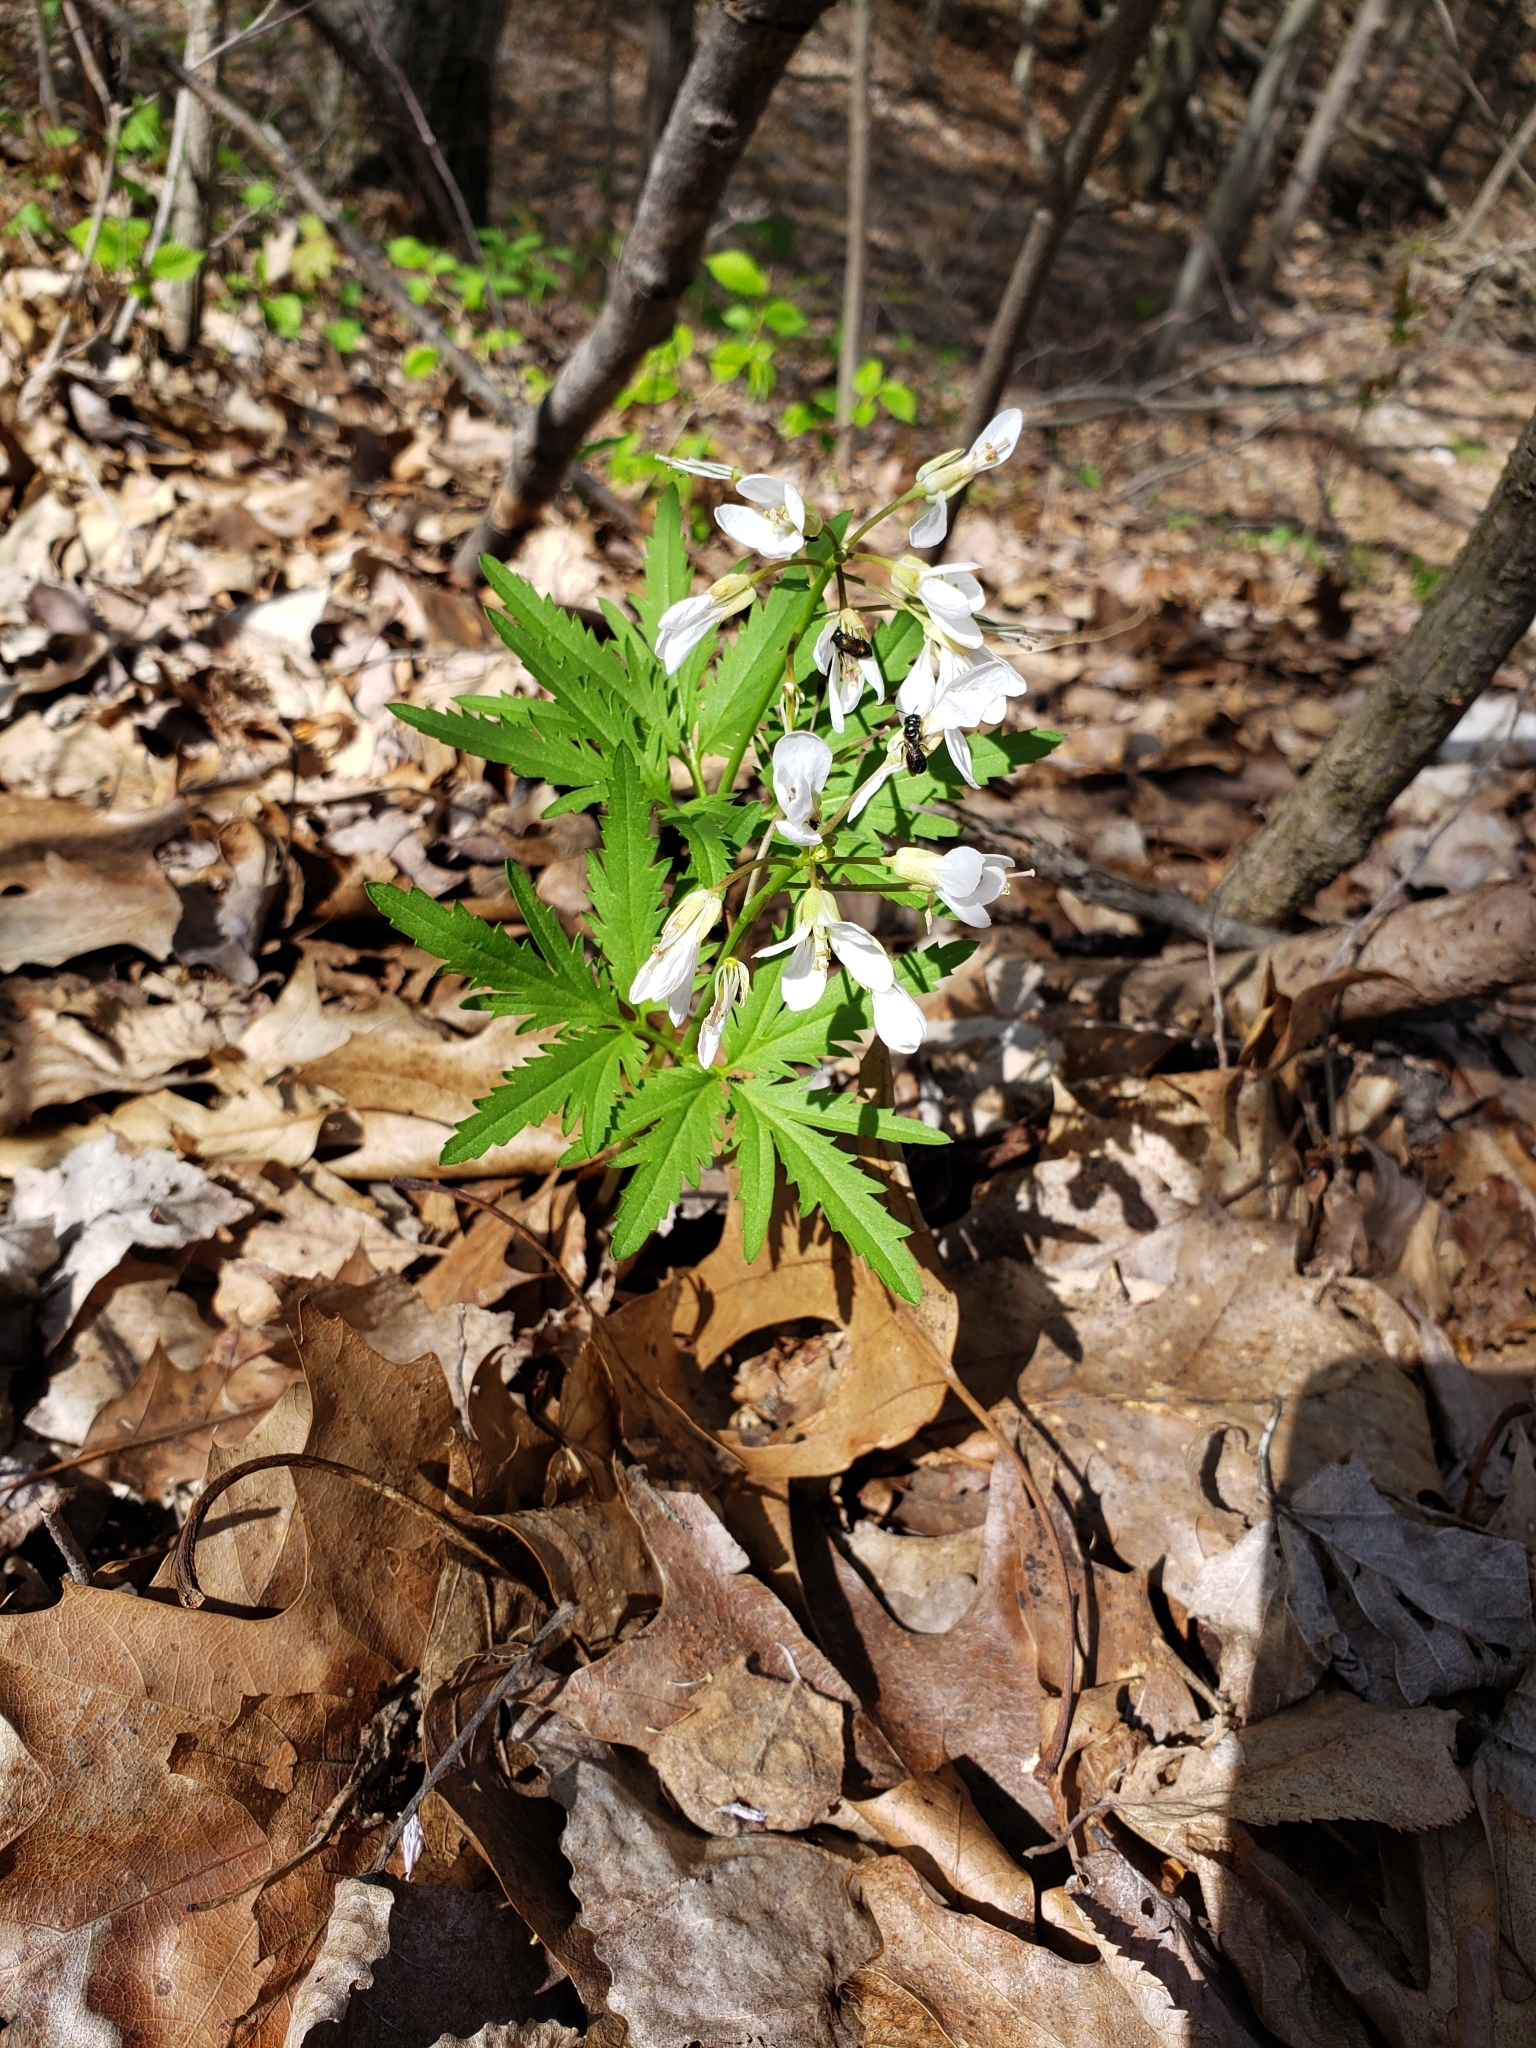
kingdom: Plantae
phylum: Tracheophyta
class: Magnoliopsida
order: Brassicales
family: Brassicaceae
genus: Cardamine
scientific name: Cardamine concatenata
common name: Cut-leaf toothcup
